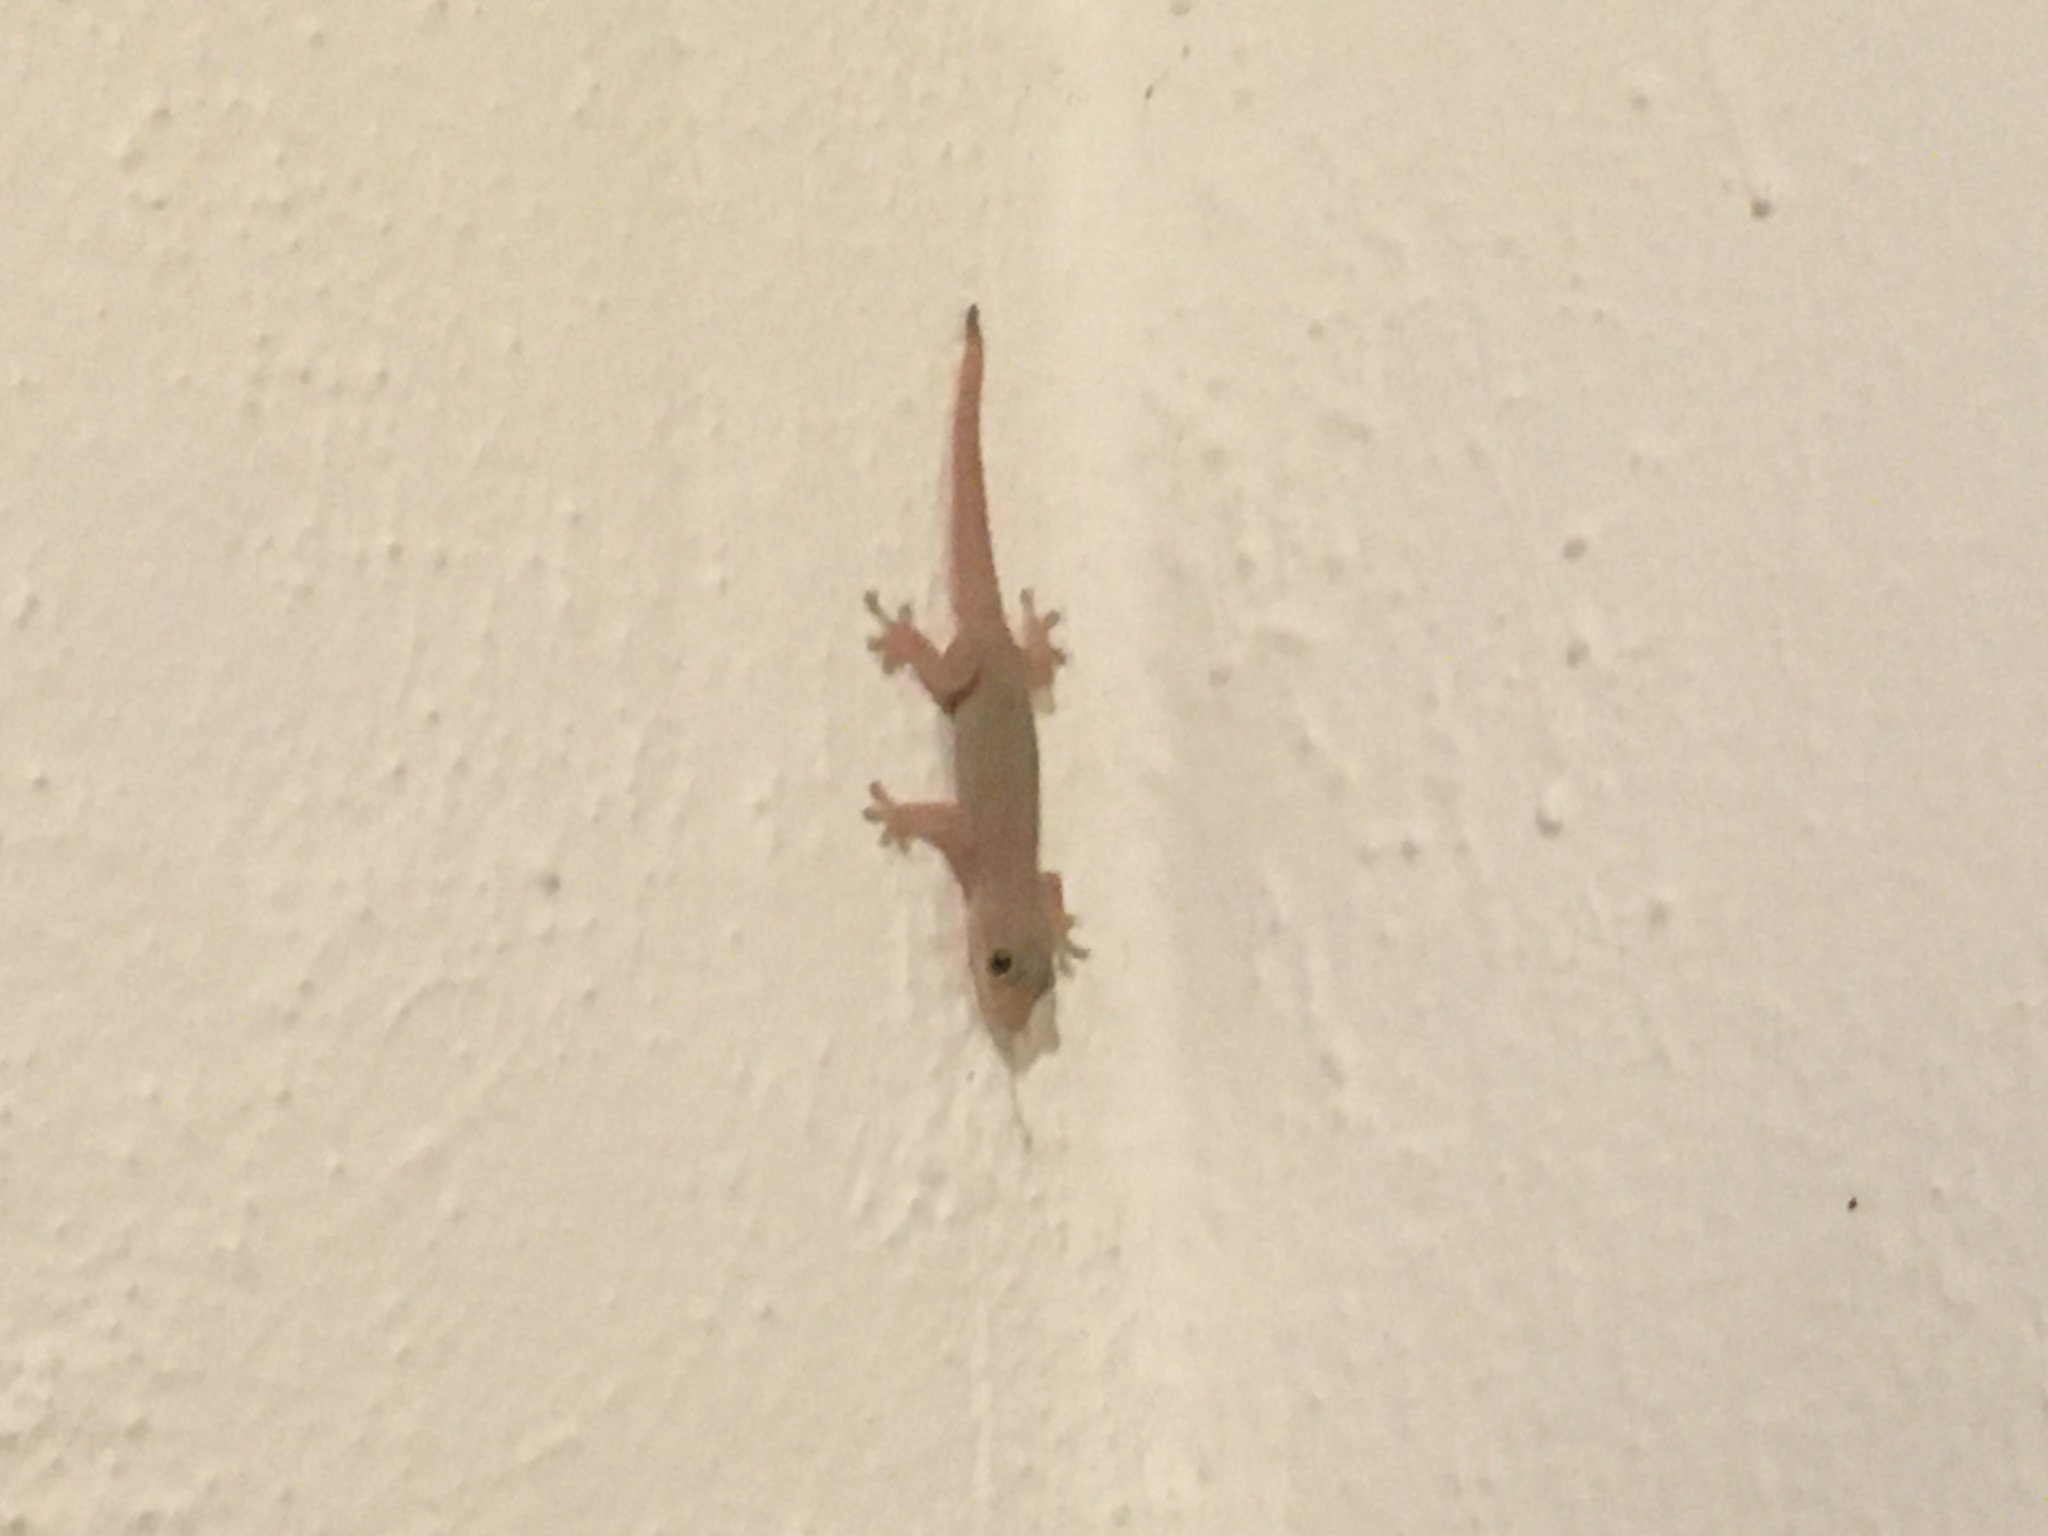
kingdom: Animalia
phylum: Chordata
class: Squamata
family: Gekkonidae
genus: Hemidactylus
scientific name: Hemidactylus frenatus
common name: Common house gecko
